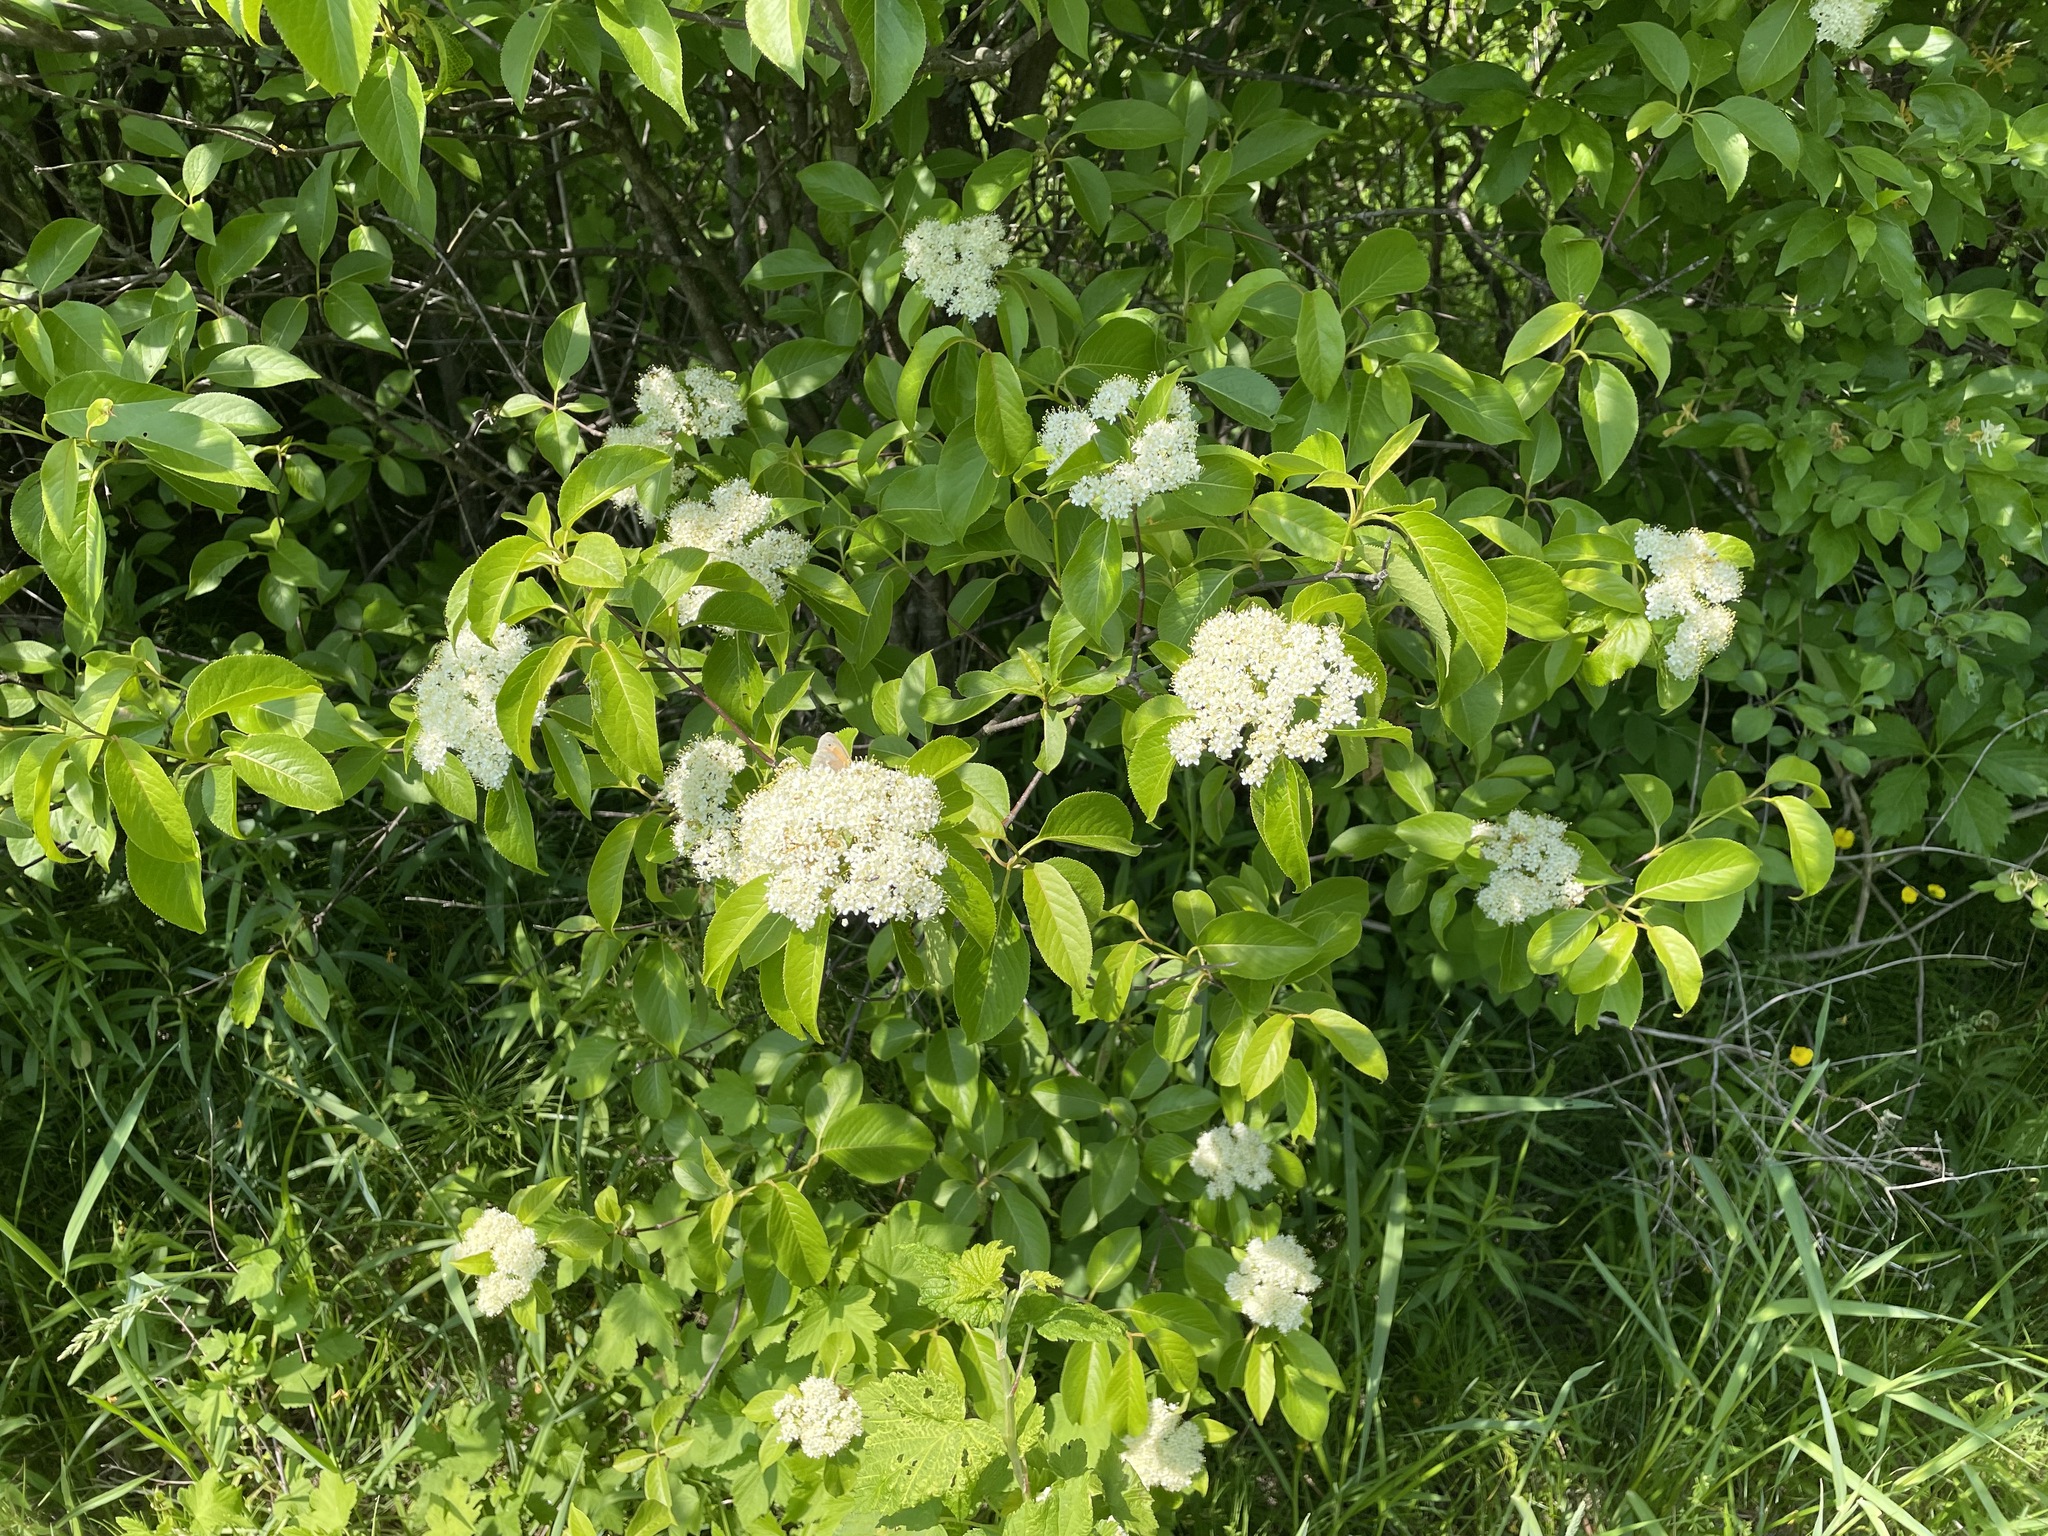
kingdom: Plantae
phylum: Tracheophyta
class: Magnoliopsida
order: Dipsacales
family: Viburnaceae
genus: Viburnum
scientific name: Viburnum lentago
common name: Black haw
